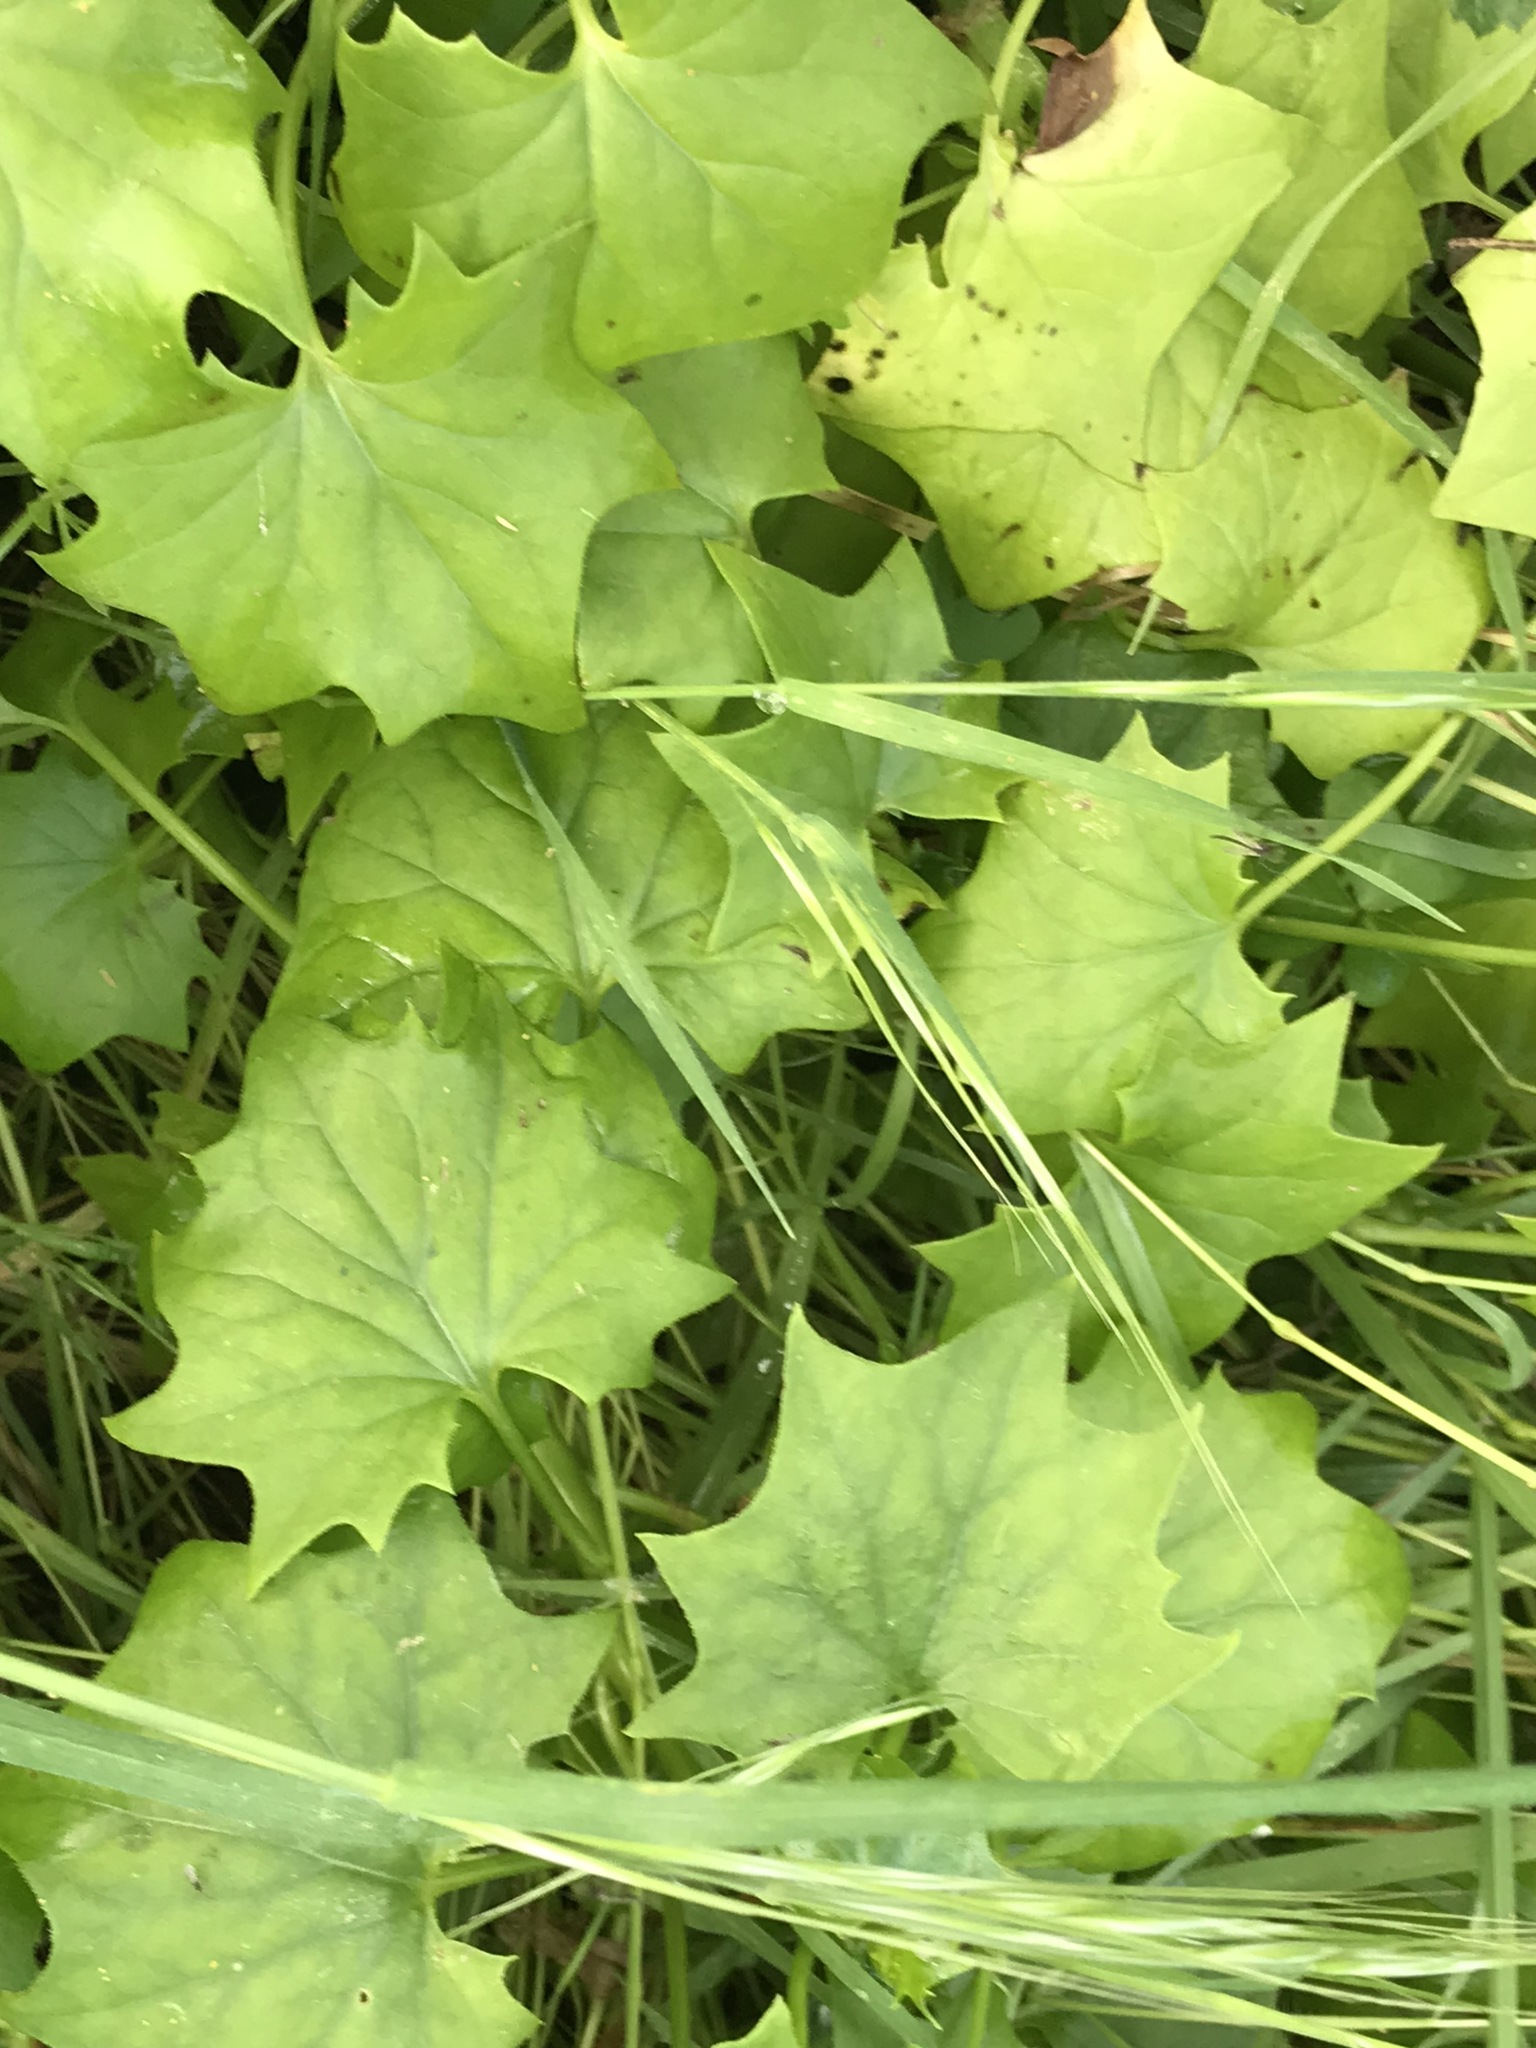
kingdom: Plantae
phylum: Tracheophyta
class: Magnoliopsida
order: Asterales
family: Asteraceae
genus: Delairea
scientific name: Delairea odorata
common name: Cape-ivy
